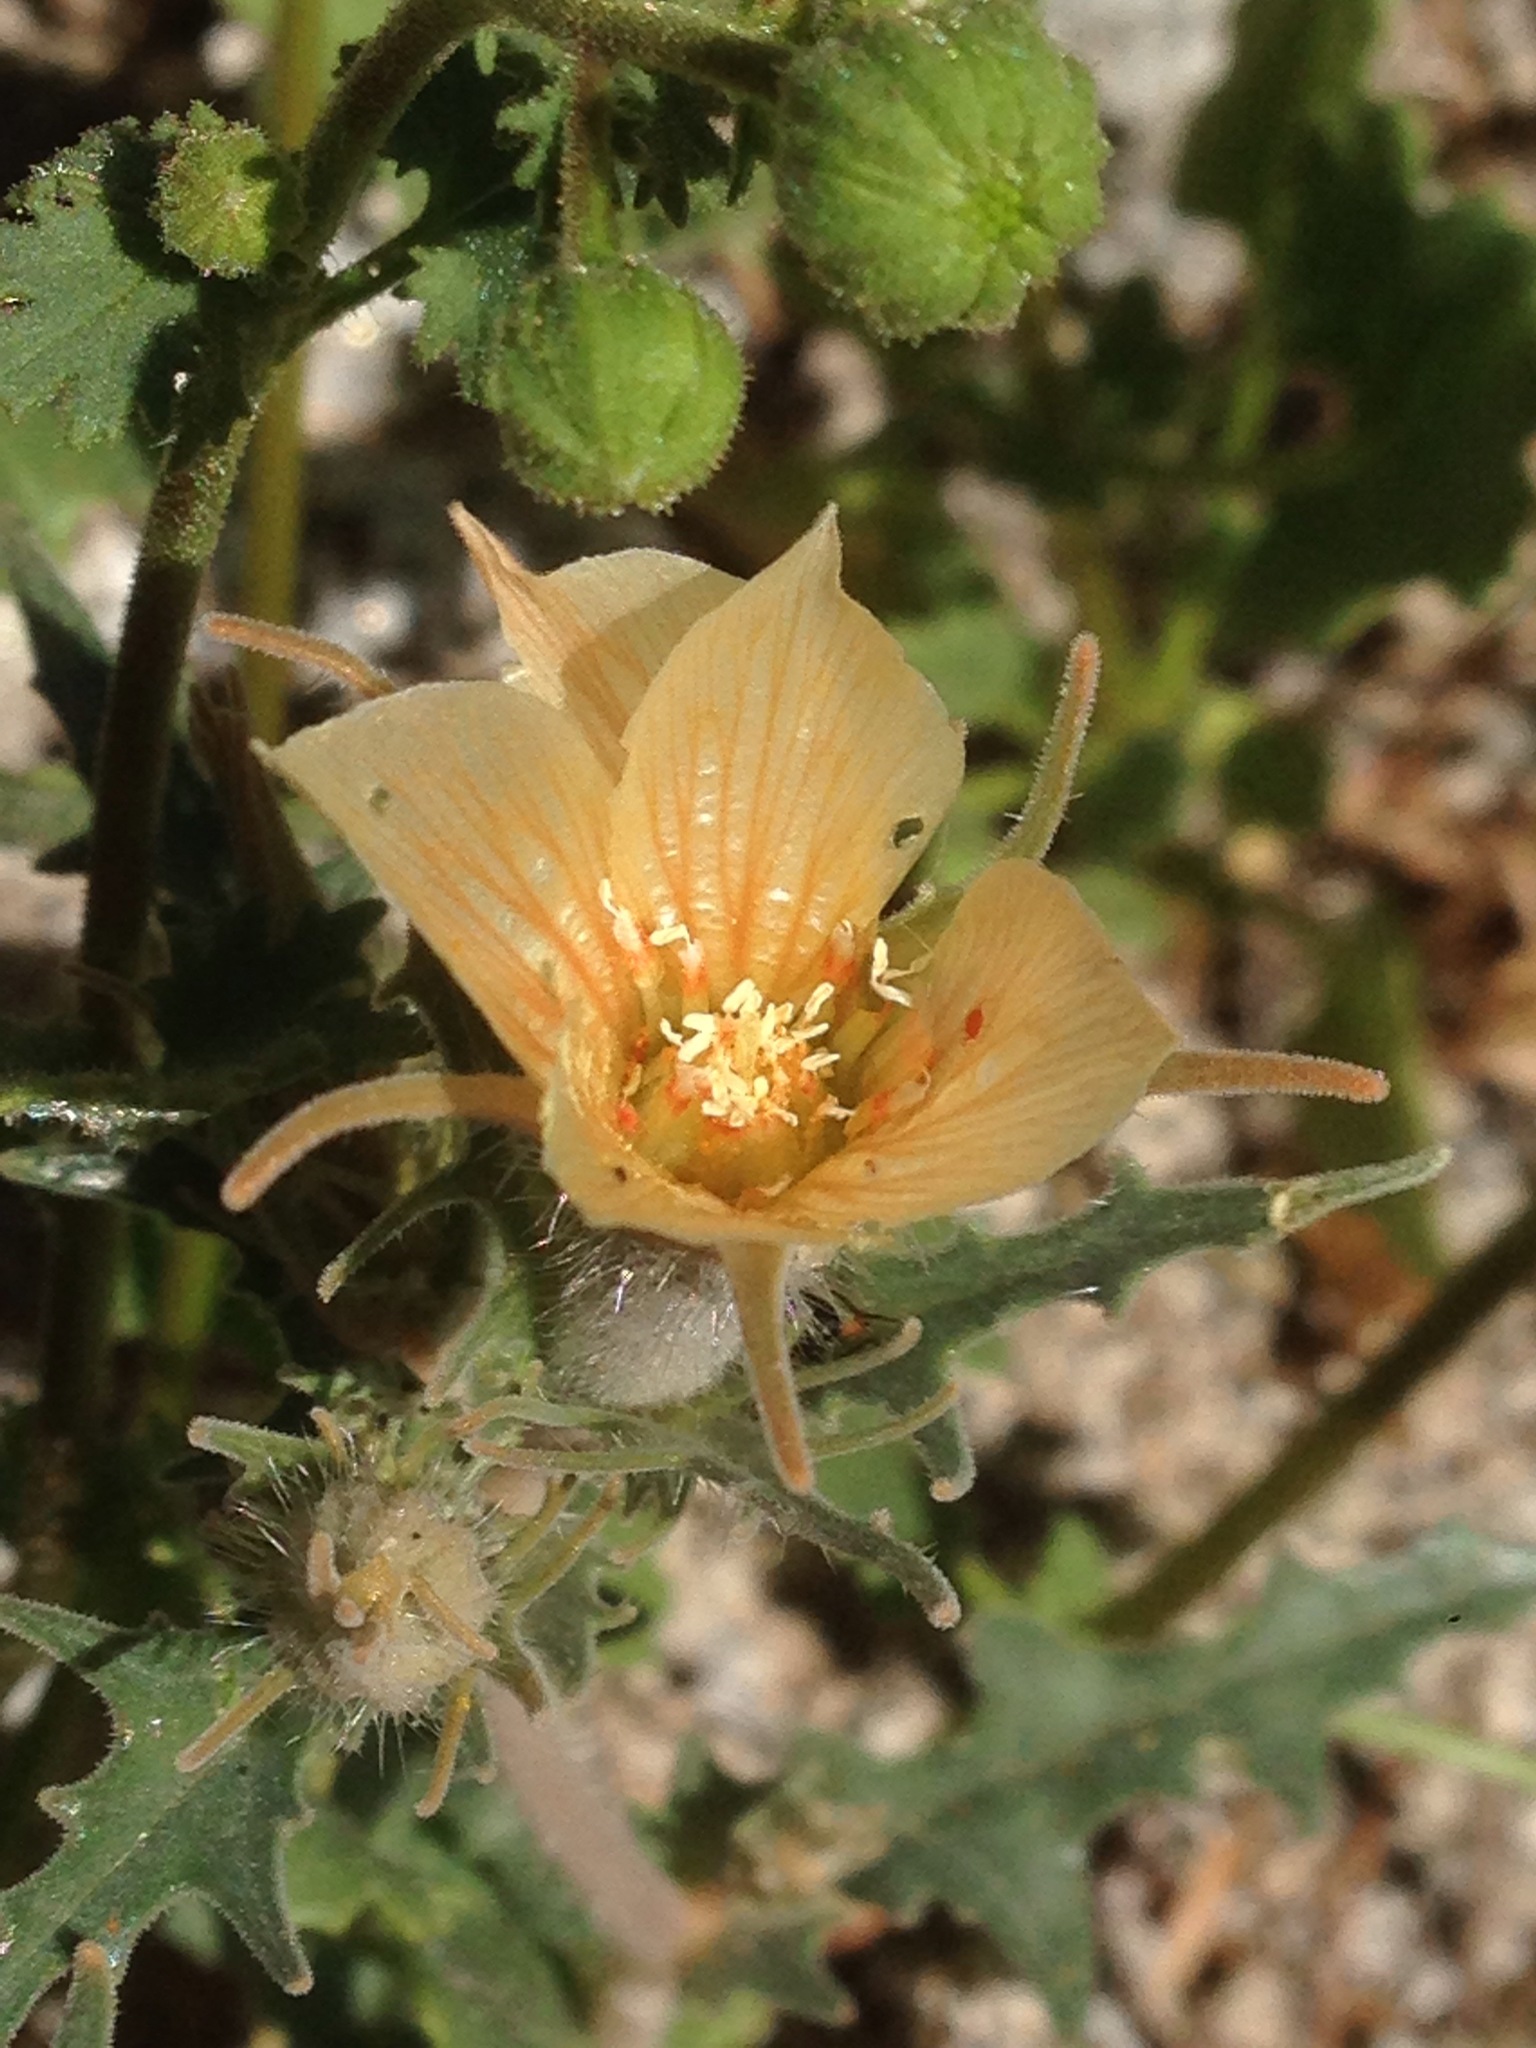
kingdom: Plantae
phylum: Tracheophyta
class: Magnoliopsida
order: Cornales
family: Loasaceae
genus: Mentzelia
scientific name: Mentzelia hirsutissima
